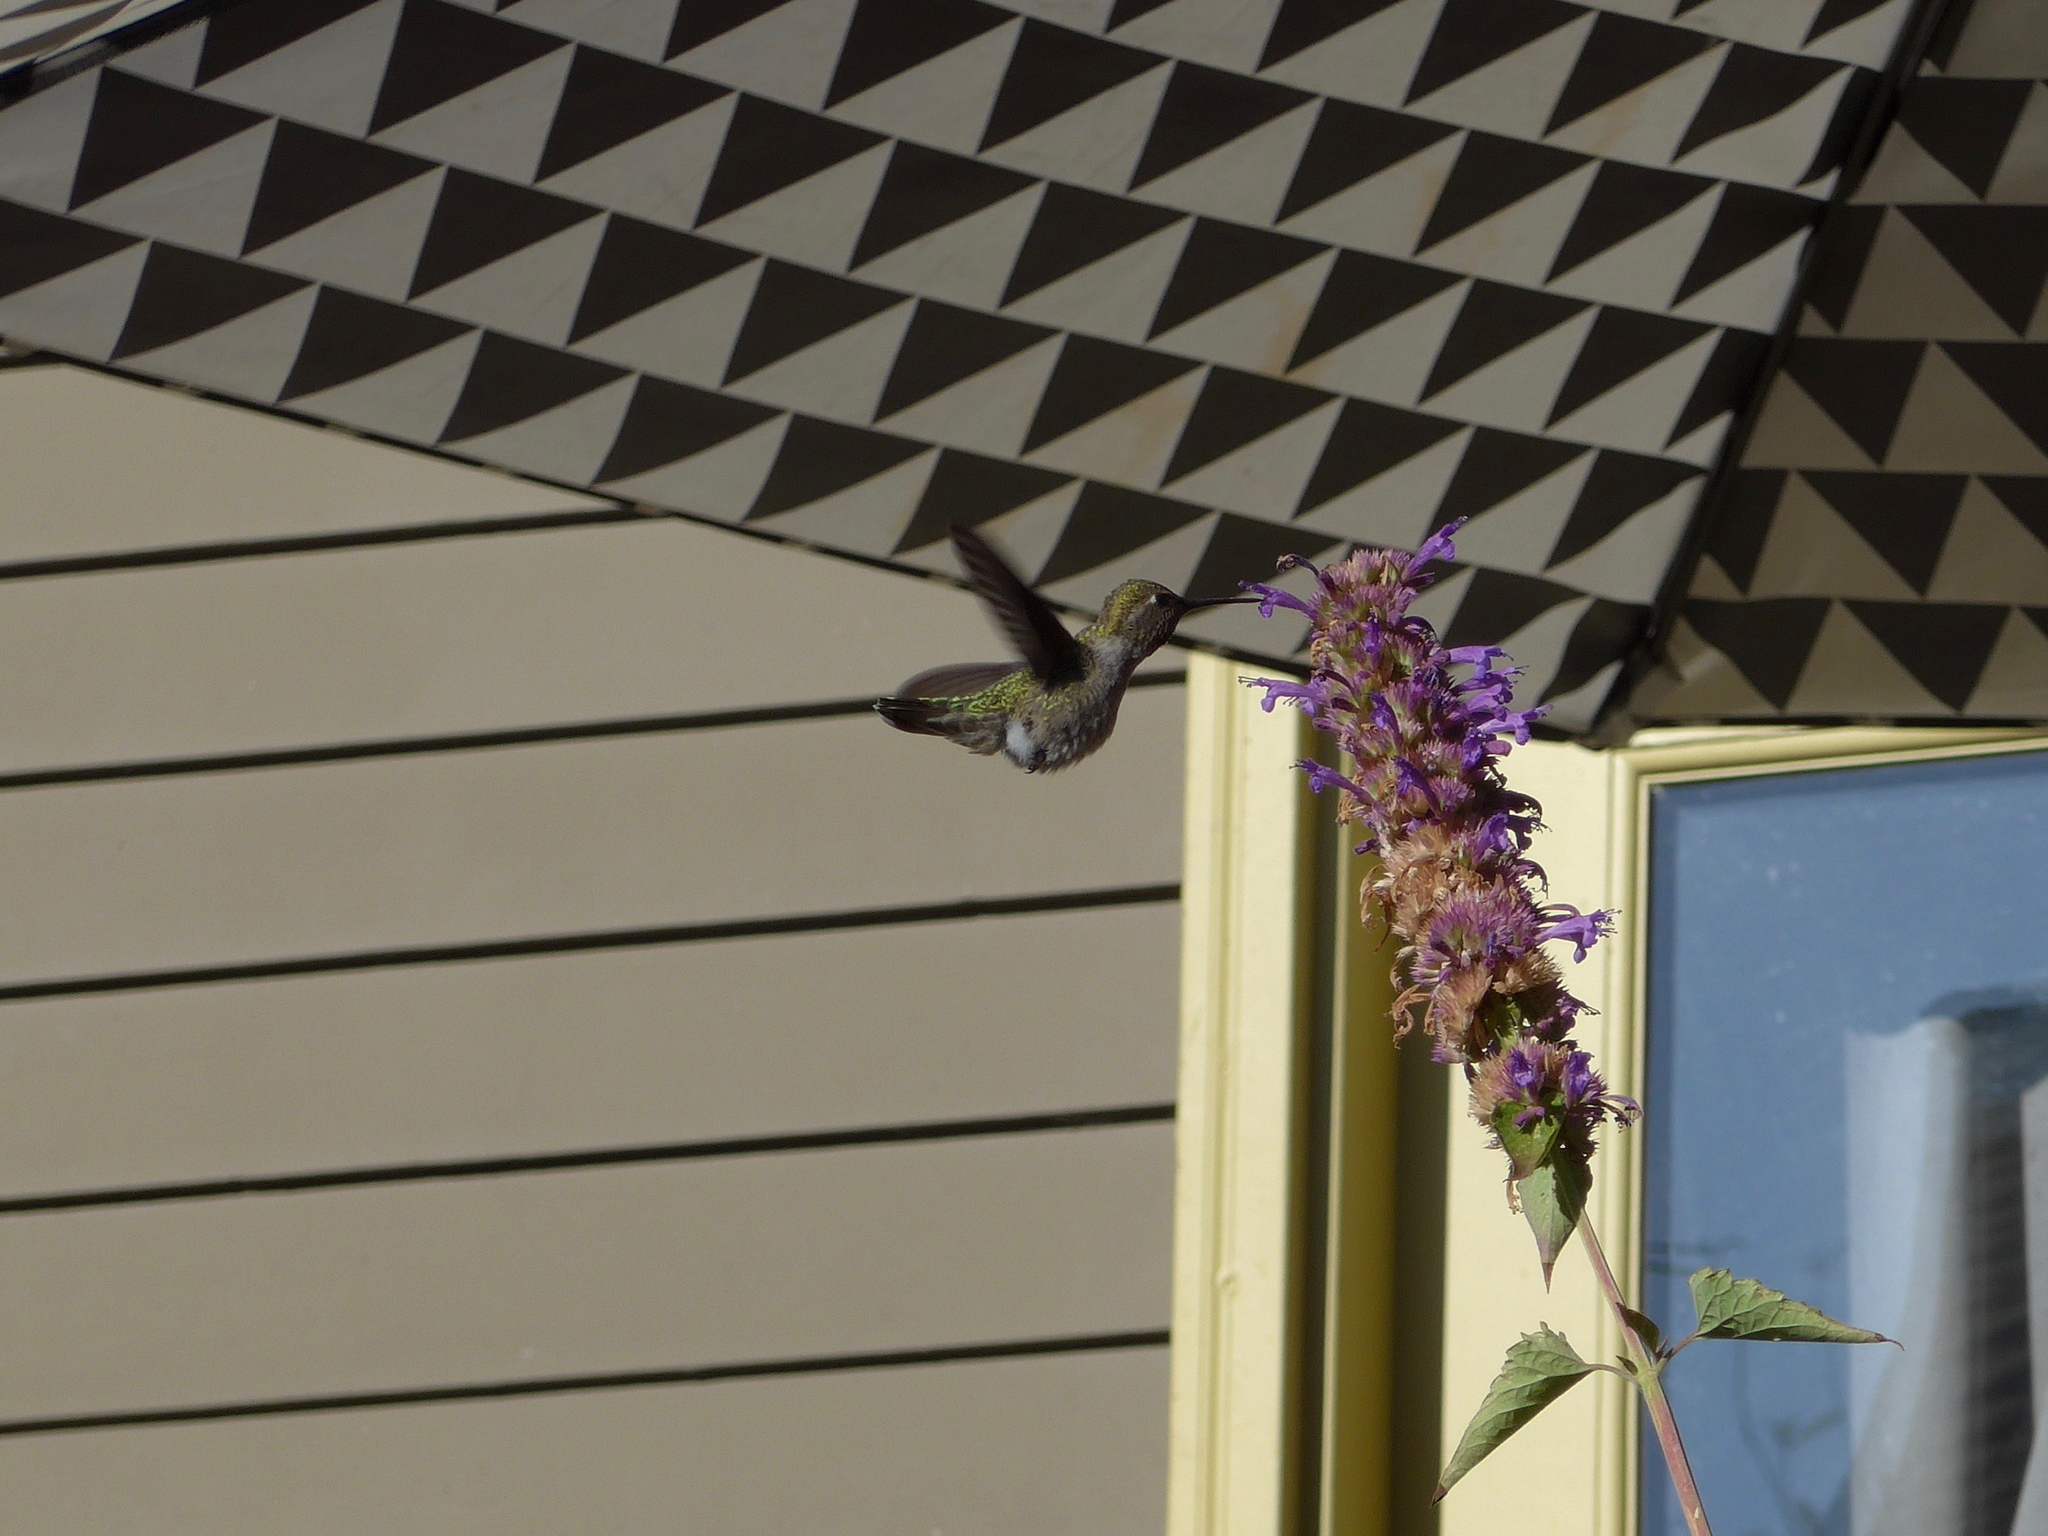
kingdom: Animalia
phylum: Chordata
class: Aves
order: Apodiformes
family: Trochilidae
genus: Calypte
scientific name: Calypte anna
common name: Anna's hummingbird
